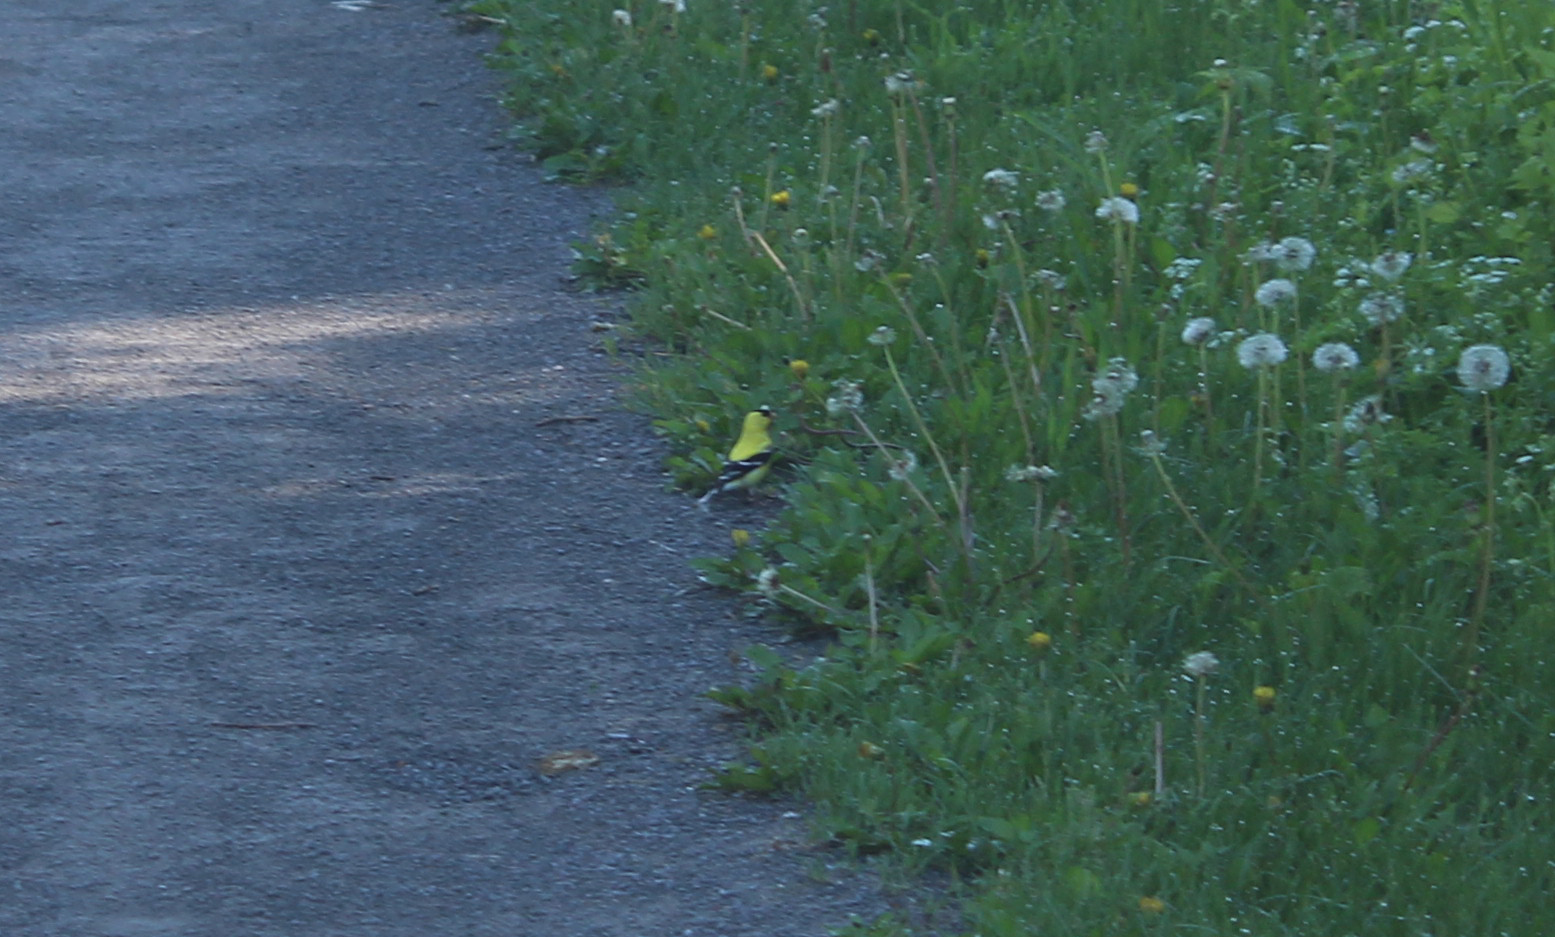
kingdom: Animalia
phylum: Chordata
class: Aves
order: Passeriformes
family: Fringillidae
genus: Spinus
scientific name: Spinus tristis
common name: American goldfinch
